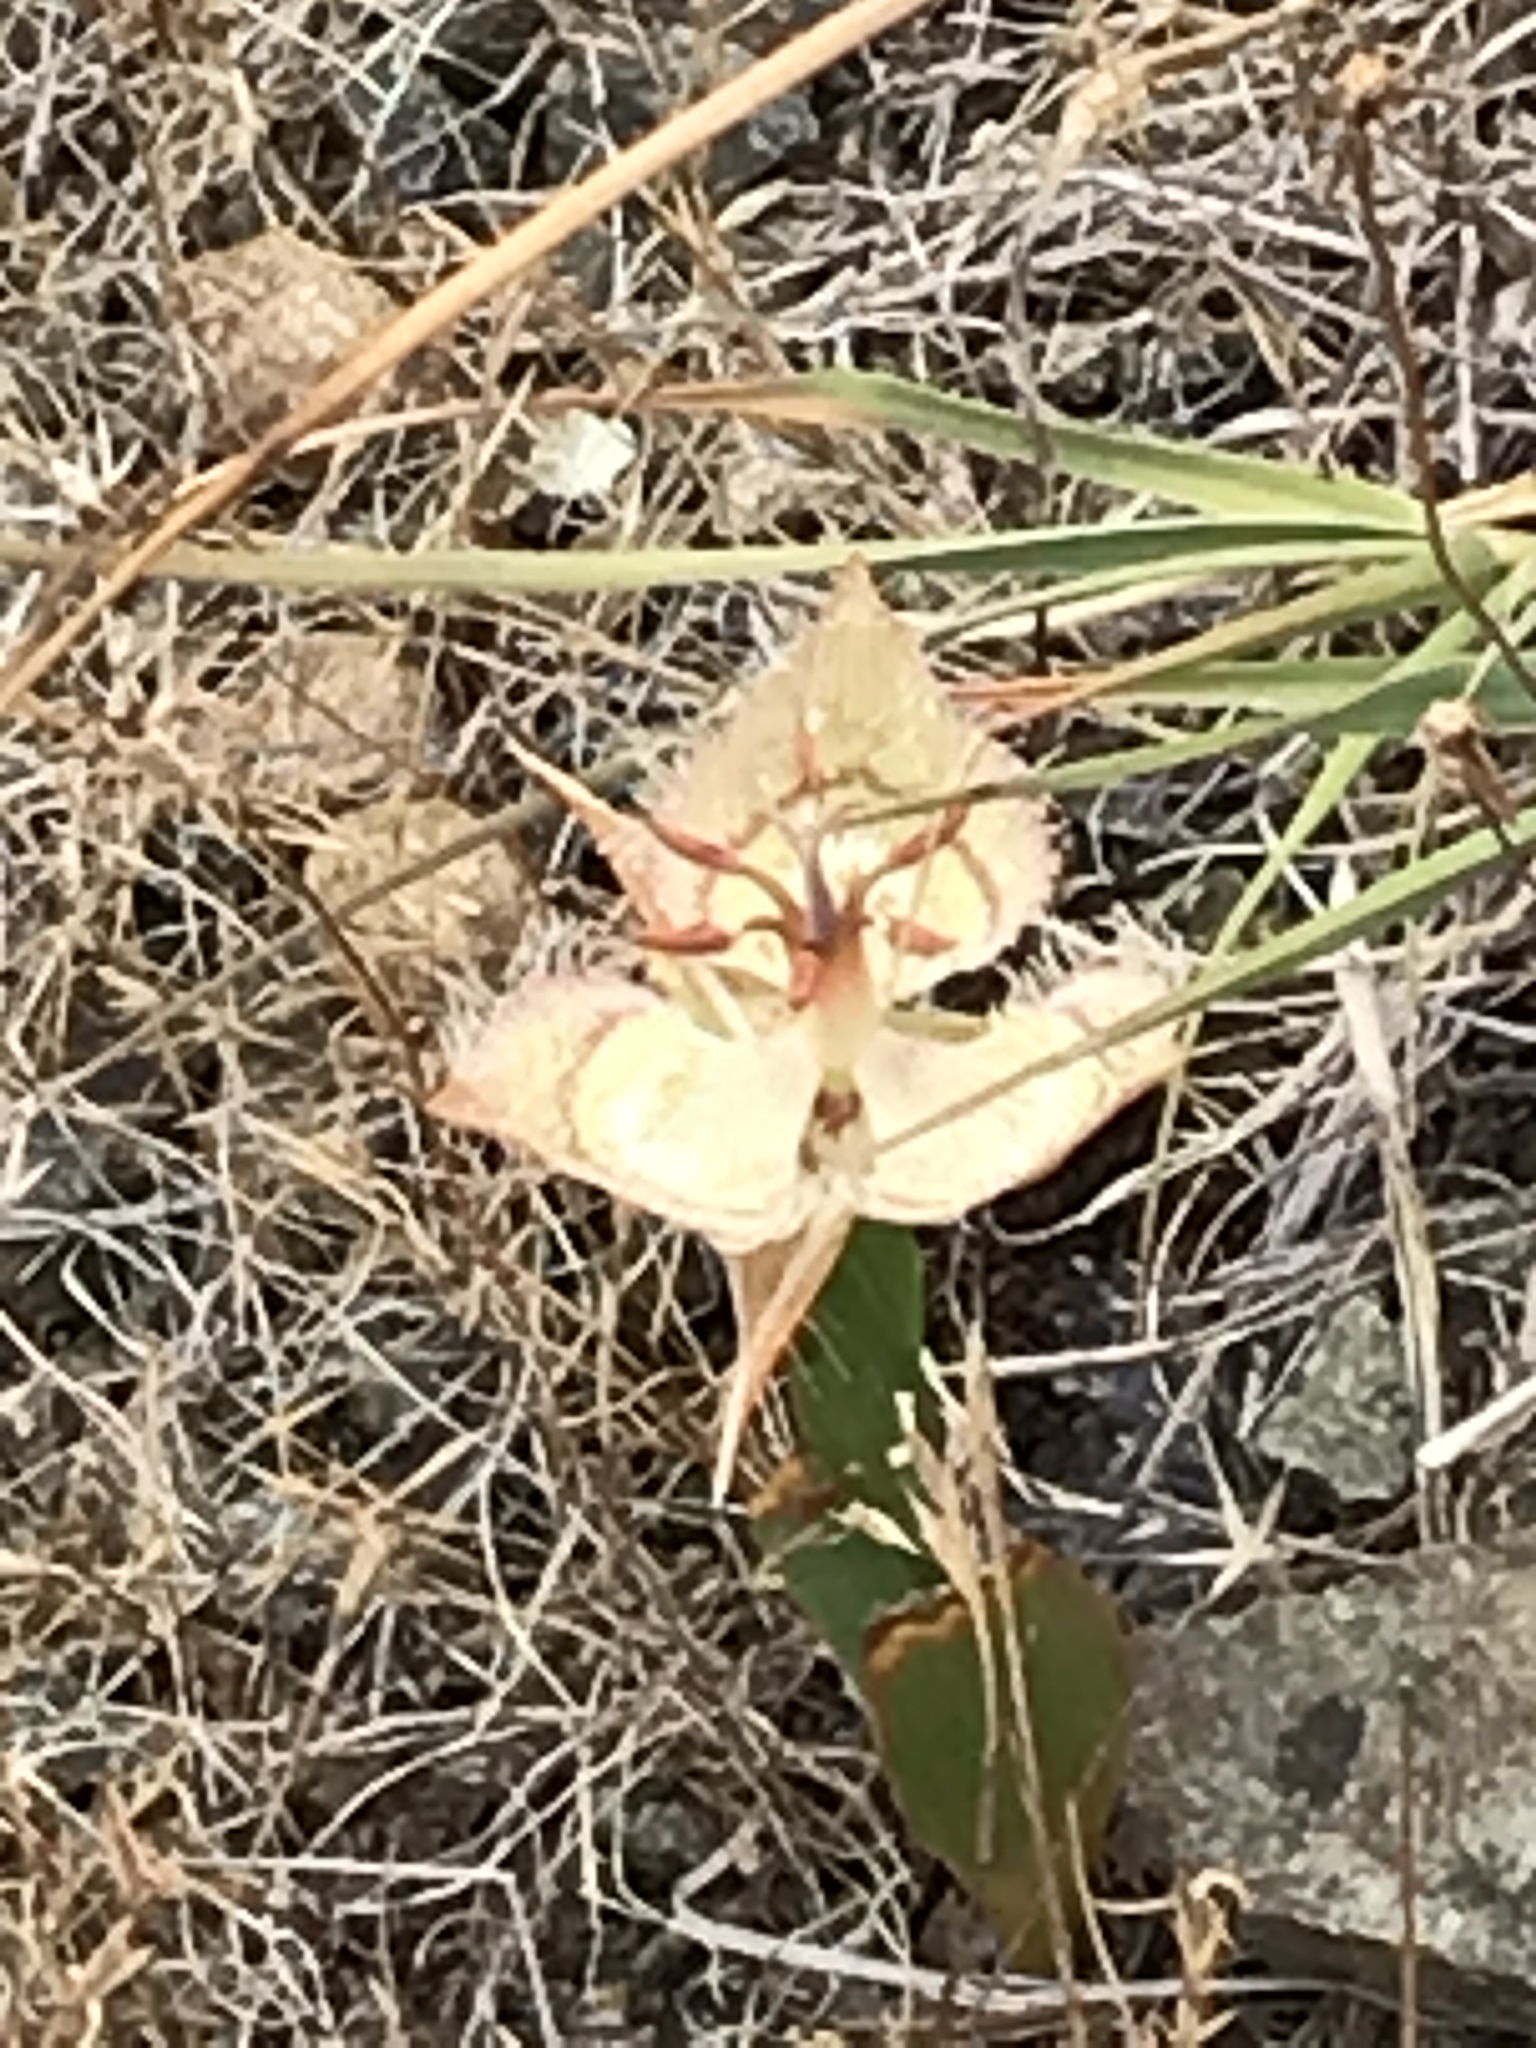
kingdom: Plantae
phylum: Tracheophyta
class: Liliopsida
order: Liliales
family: Liliaceae
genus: Calochortus
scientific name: Calochortus tiburonensis
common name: Tiburon mariposa-lily
